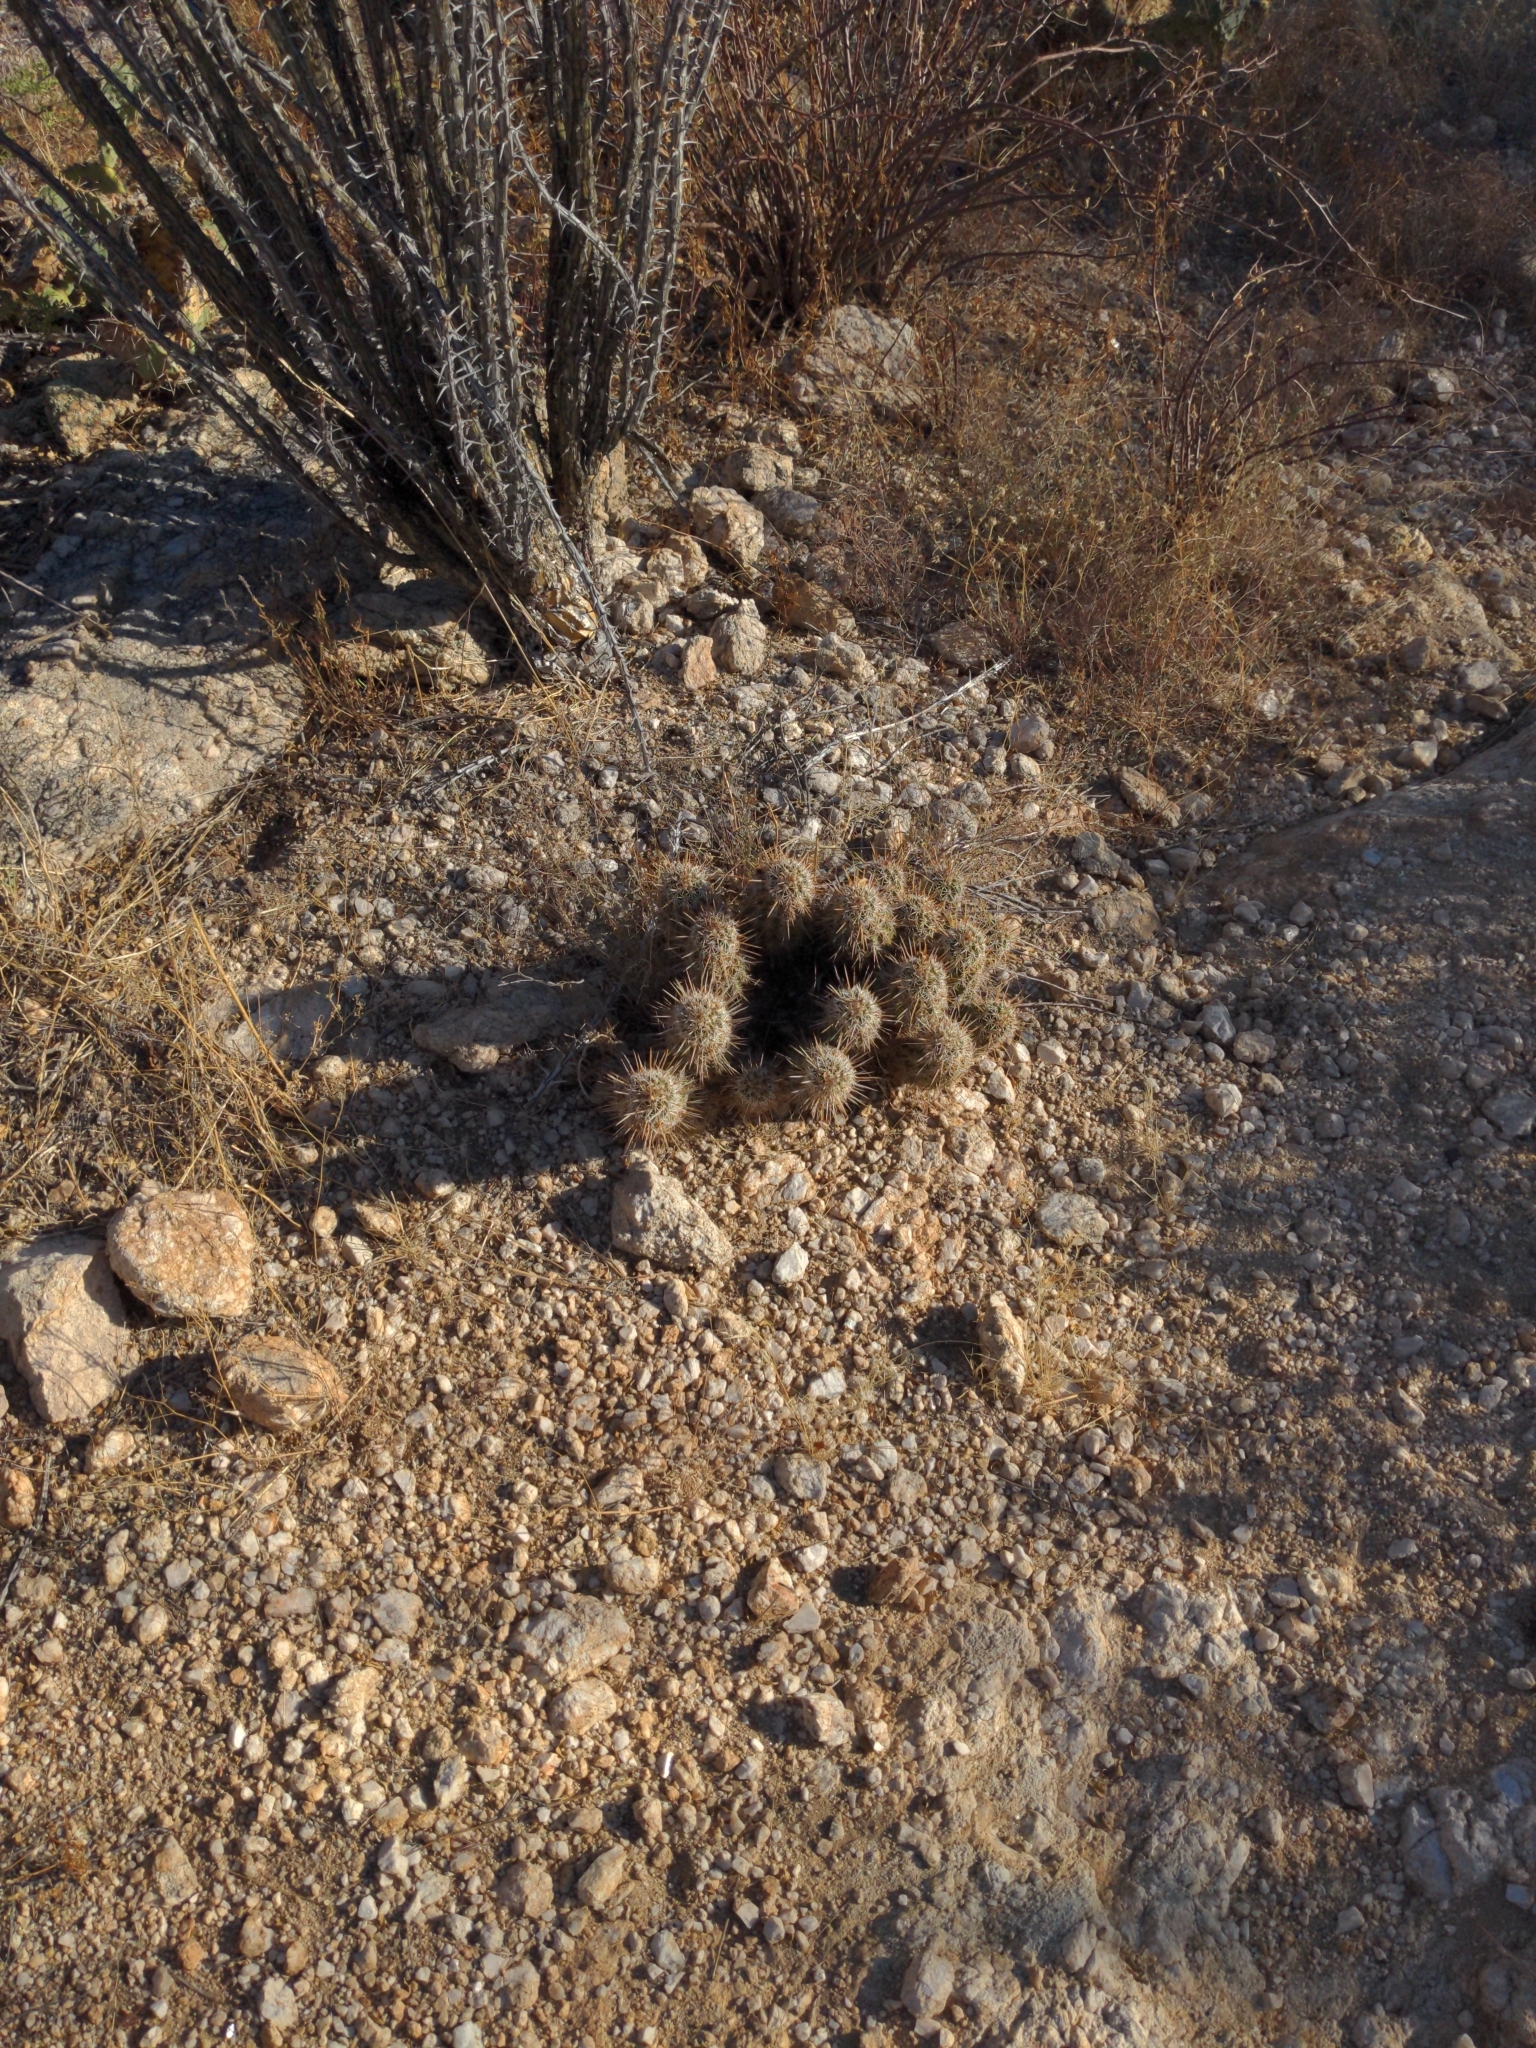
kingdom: Plantae
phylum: Tracheophyta
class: Magnoliopsida
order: Caryophyllales
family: Cactaceae
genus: Echinocereus
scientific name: Echinocereus fasciculatus
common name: Bundle hedgehog
